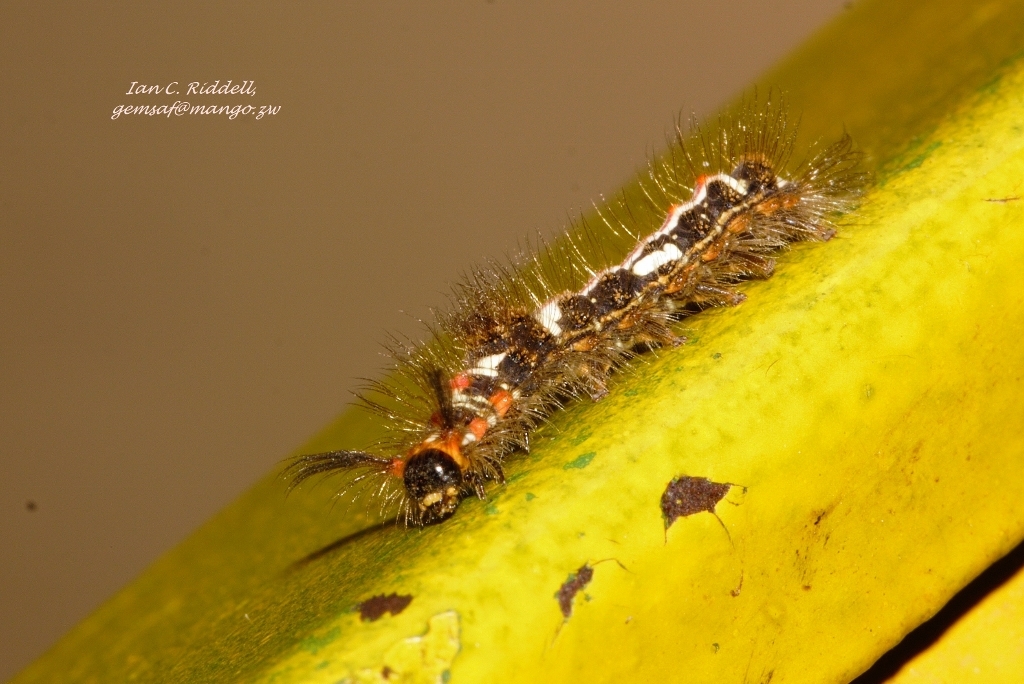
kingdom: Animalia
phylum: Arthropoda
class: Insecta
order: Lepidoptera
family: Erebidae
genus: Euproctis
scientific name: Euproctis aethiopica
